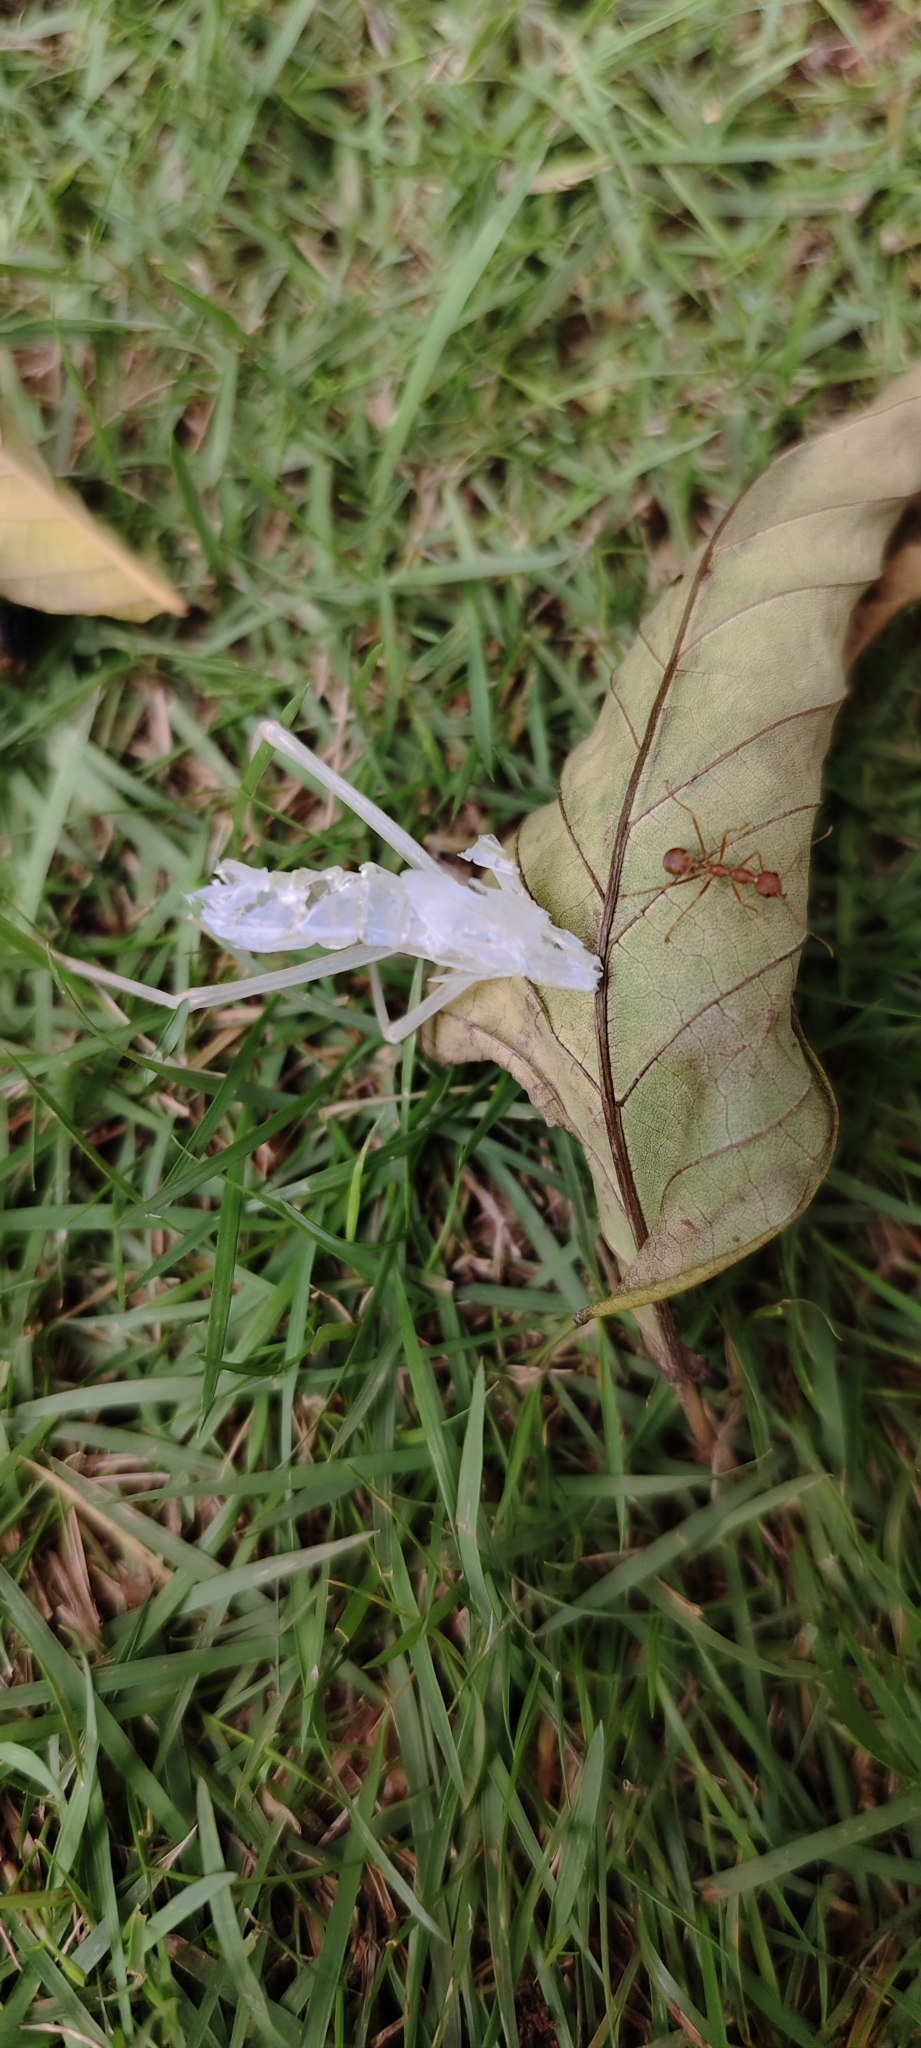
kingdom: Animalia
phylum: Arthropoda
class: Insecta
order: Hymenoptera
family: Formicidae
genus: Oecophylla
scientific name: Oecophylla smaragdina
